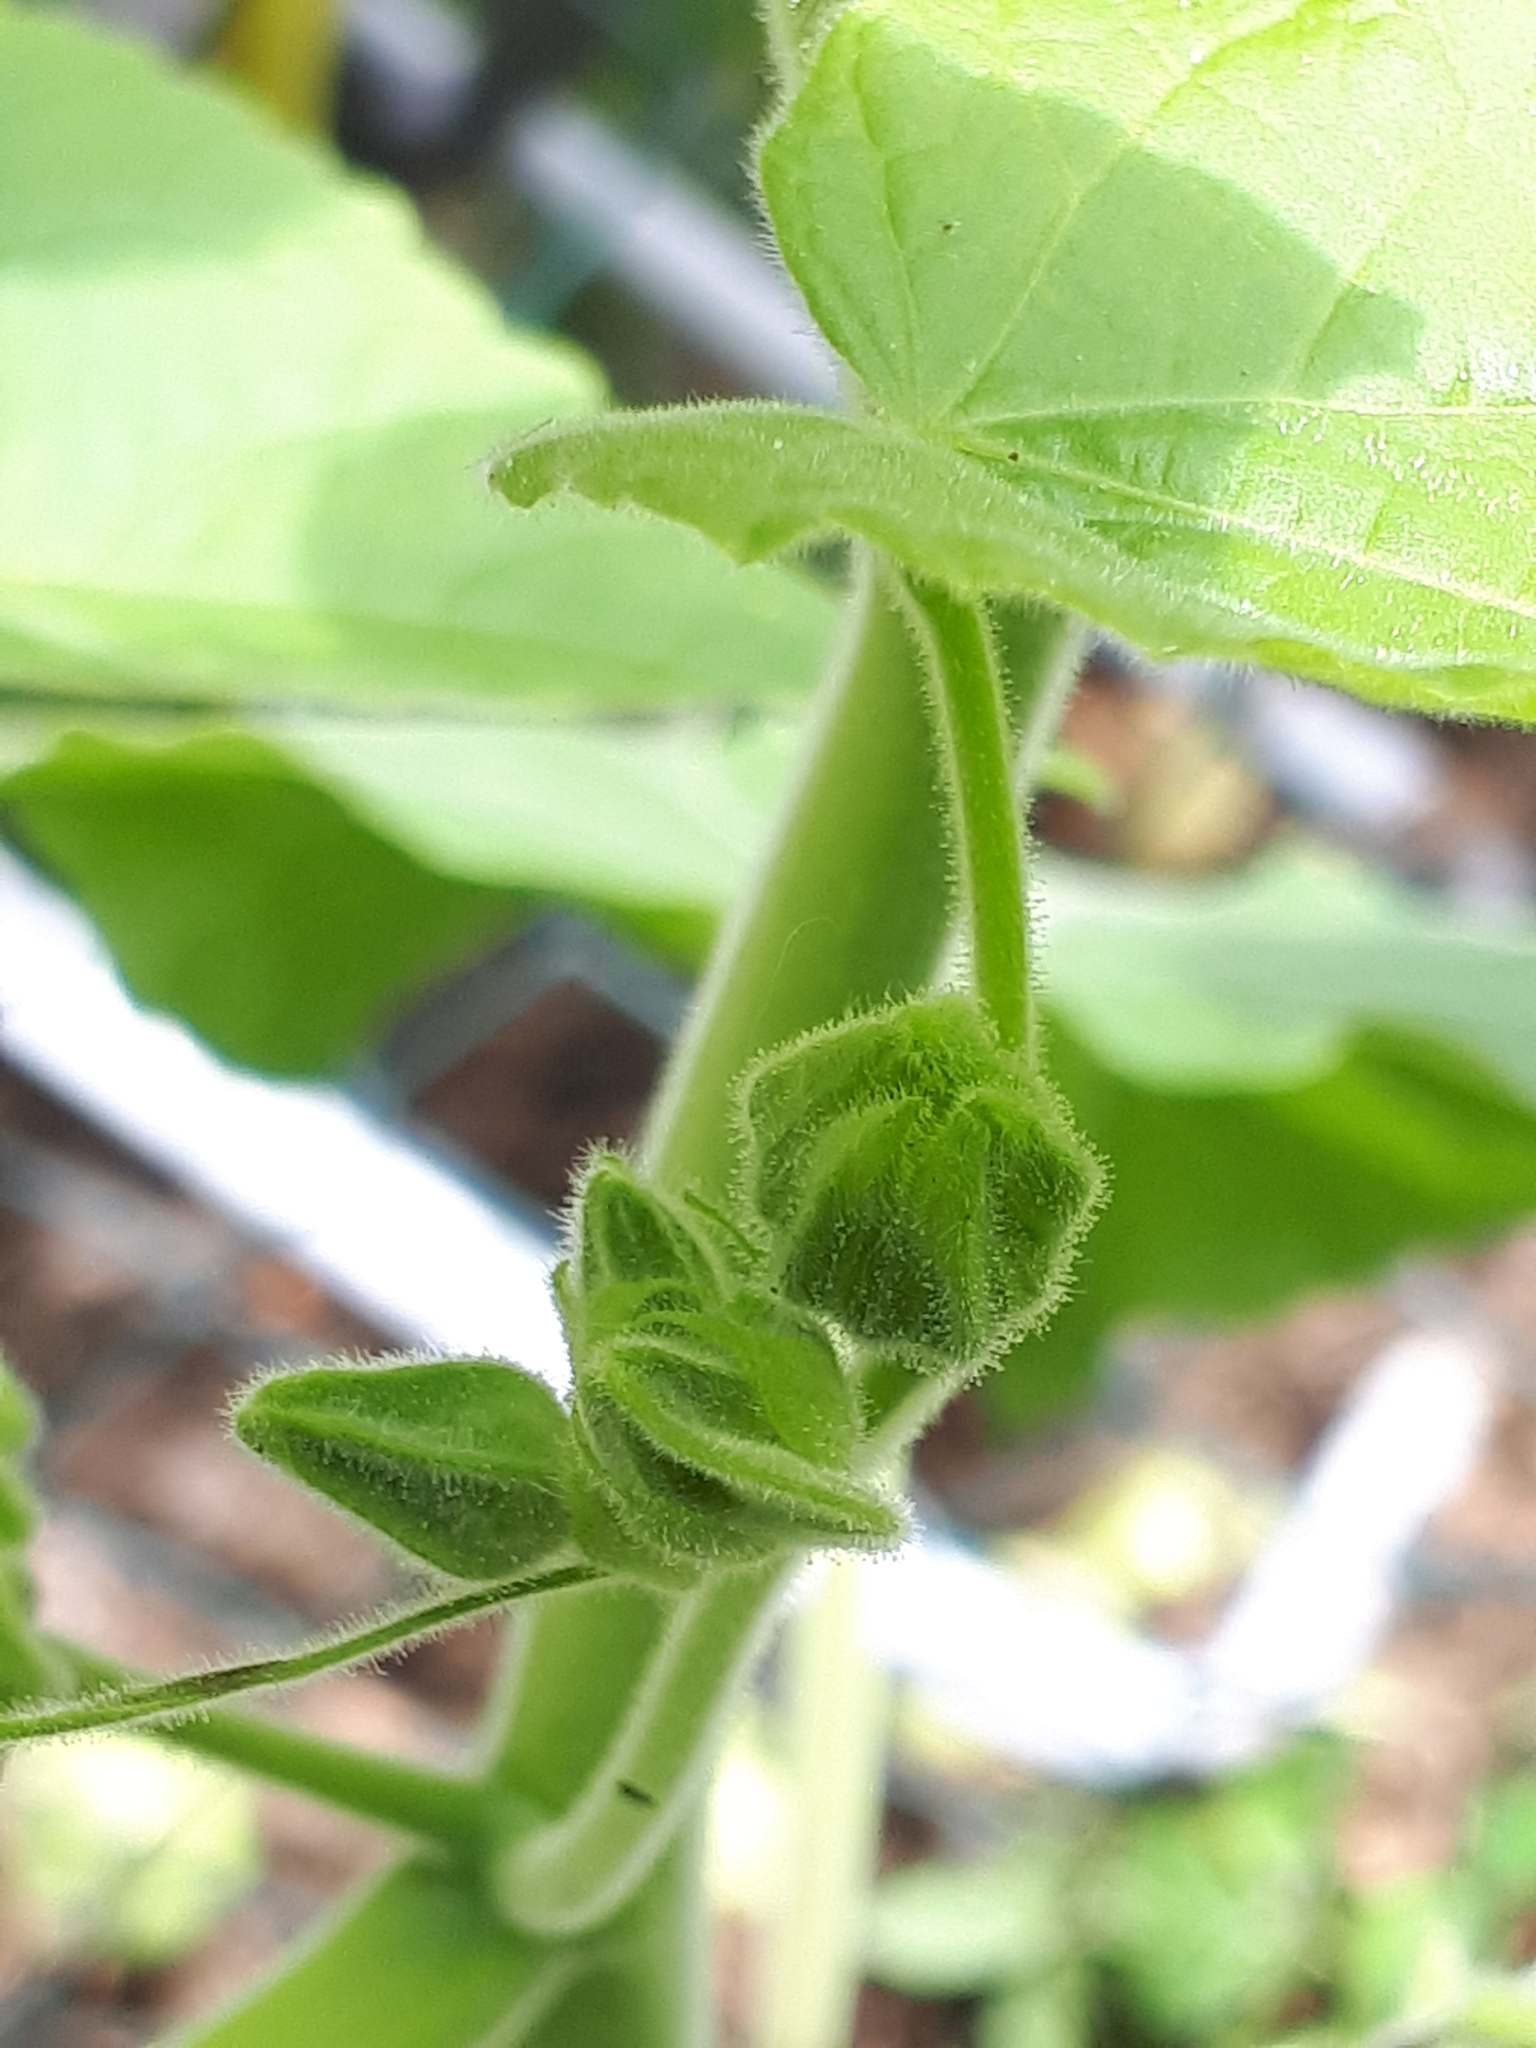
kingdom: Plantae
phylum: Tracheophyta
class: Magnoliopsida
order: Malvales
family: Malvaceae
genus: Abutilon
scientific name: Abutilon theophrasti
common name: Velvetleaf
